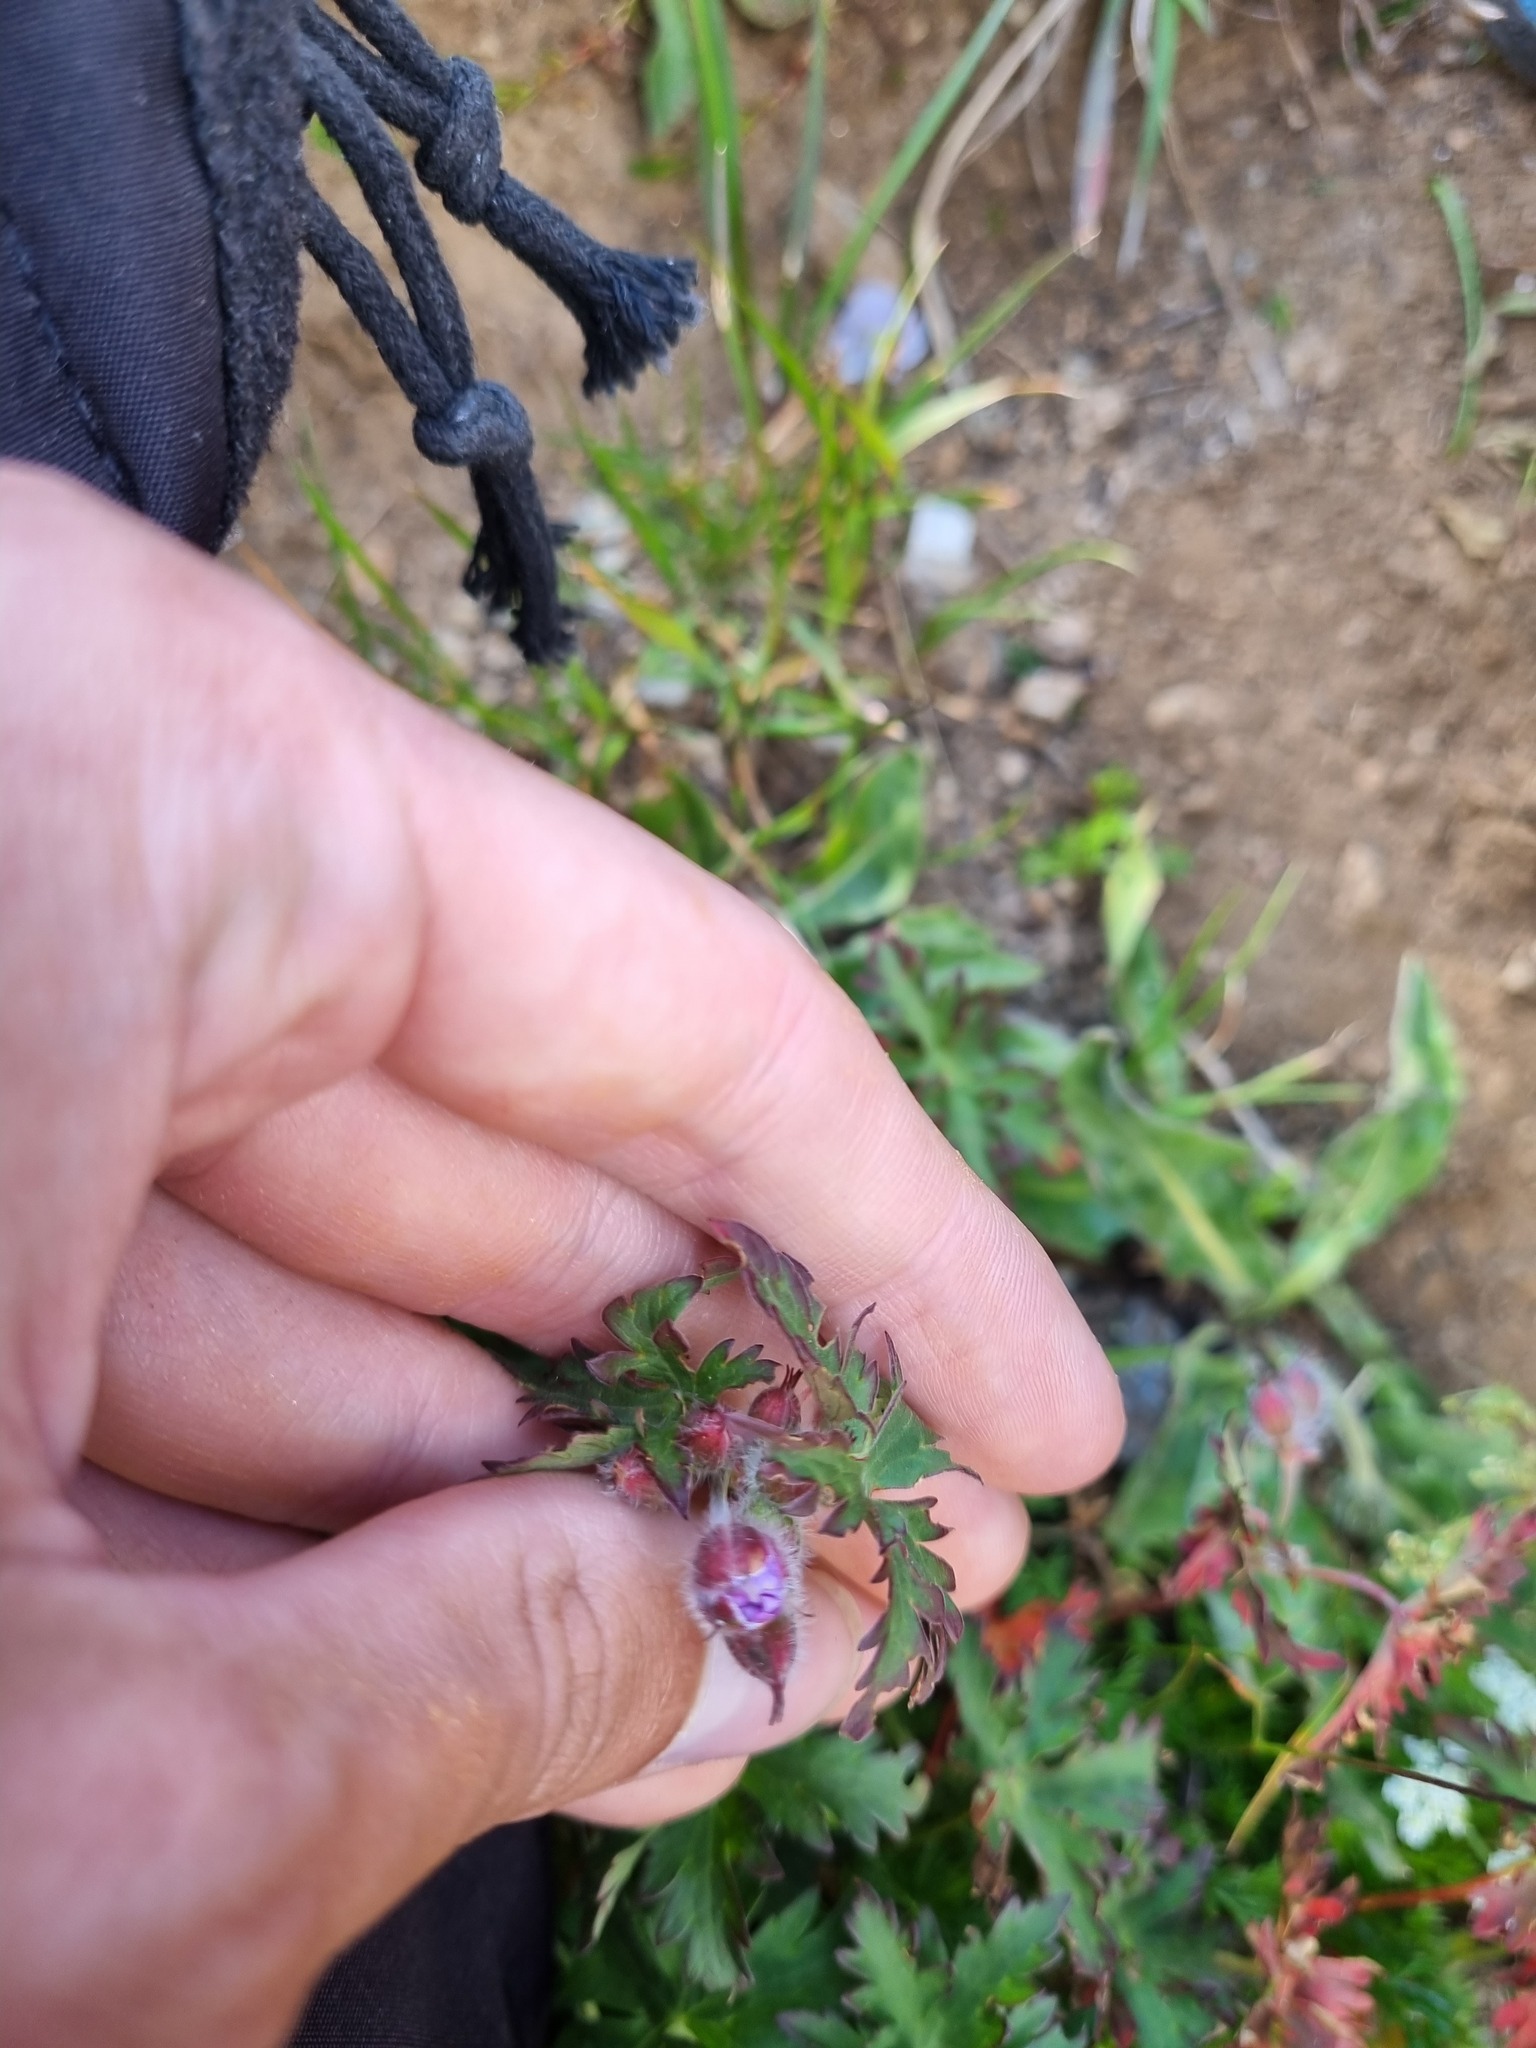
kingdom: Plantae
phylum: Tracheophyta
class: Magnoliopsida
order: Geraniales
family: Geraniaceae
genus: Geranium
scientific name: Geranium gymnocaulon
